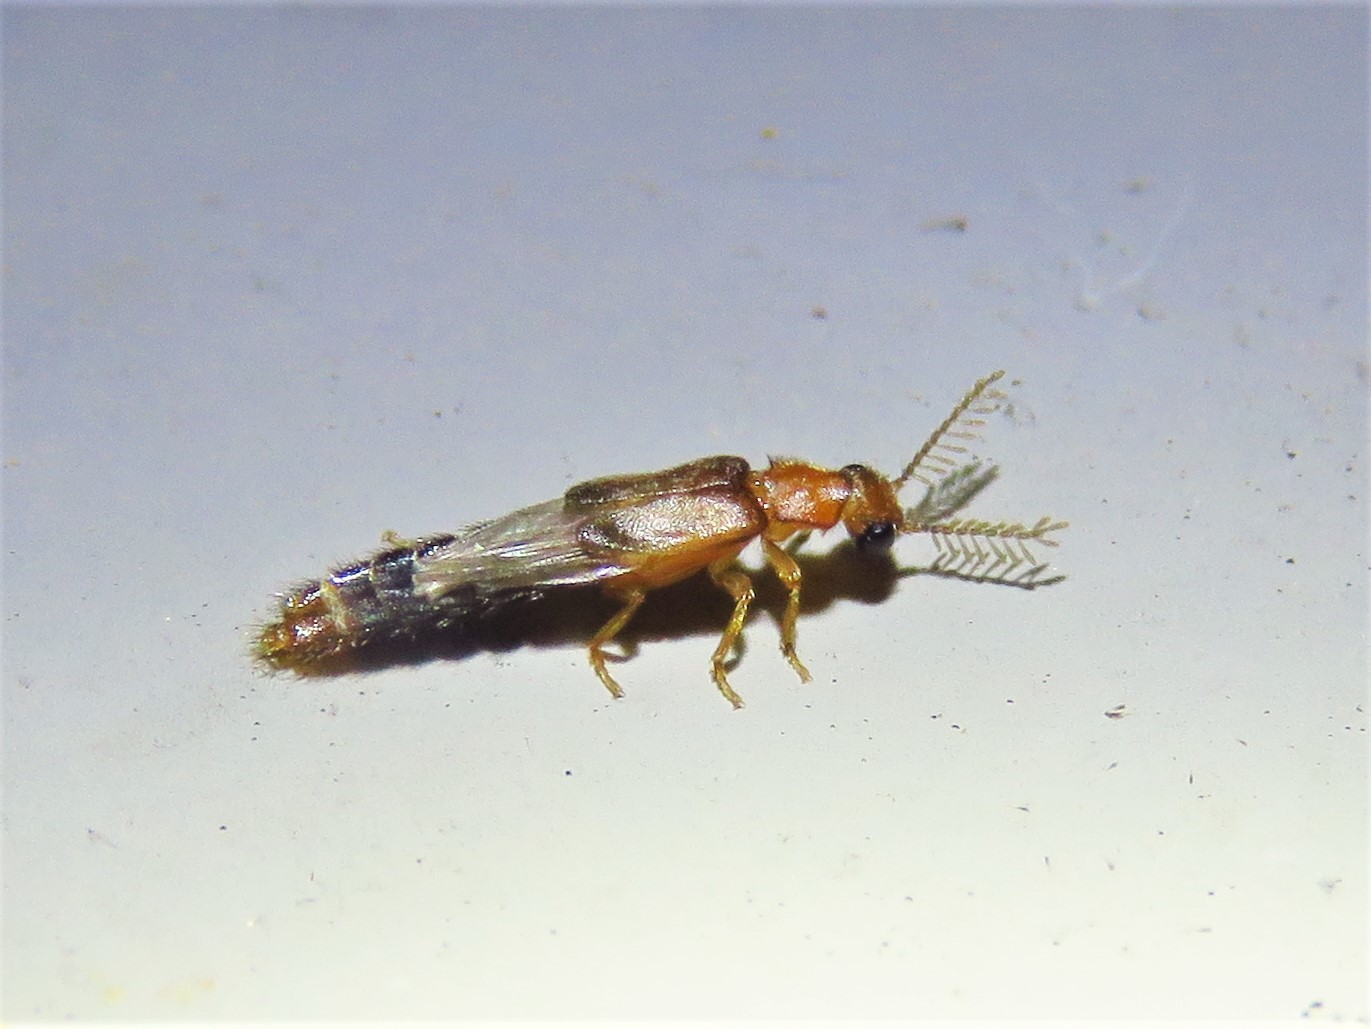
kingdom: Animalia
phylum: Arthropoda
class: Insecta
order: Coleoptera
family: Phengodidae
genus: Distremocephalus
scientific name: Distremocephalus texanus
